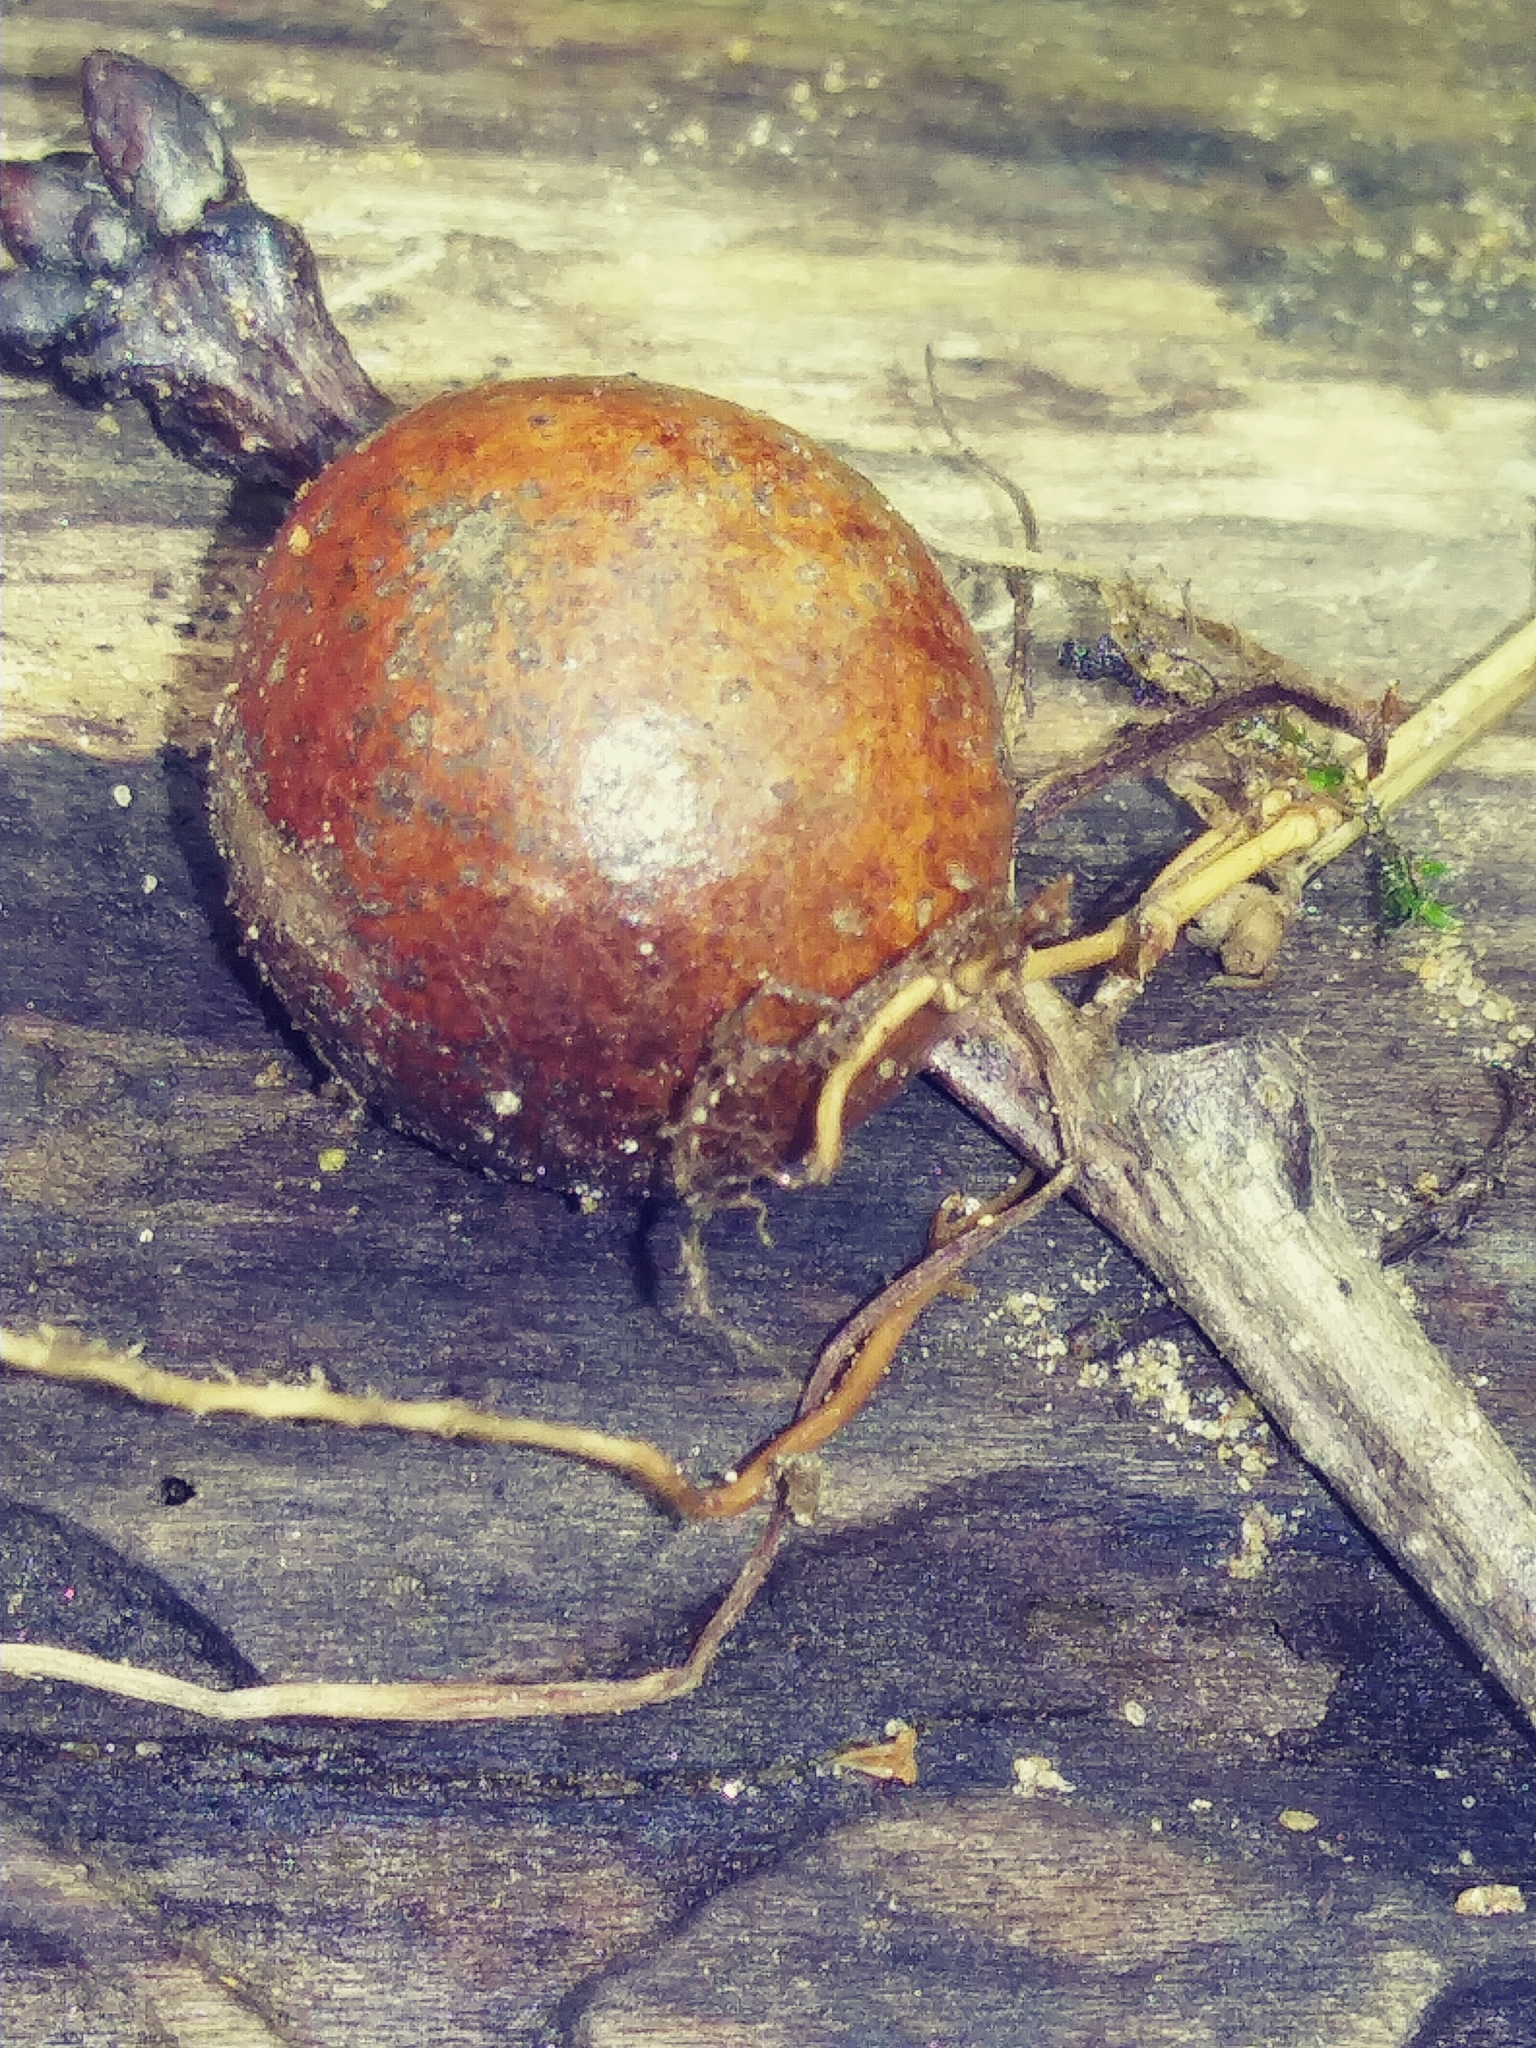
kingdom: Animalia
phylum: Arthropoda
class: Insecta
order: Hymenoptera
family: Cynipidae
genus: Disholcaspis
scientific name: Disholcaspis quercusglobulus
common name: Round bullet gall wasp
